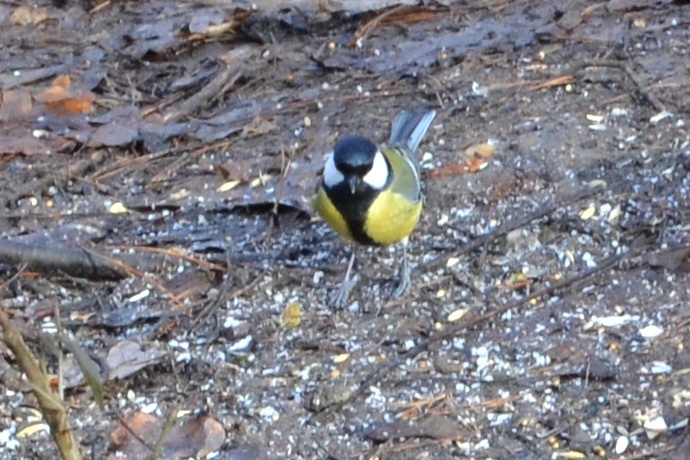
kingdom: Animalia
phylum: Chordata
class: Aves
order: Passeriformes
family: Paridae
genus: Parus
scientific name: Parus major
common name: Great tit
